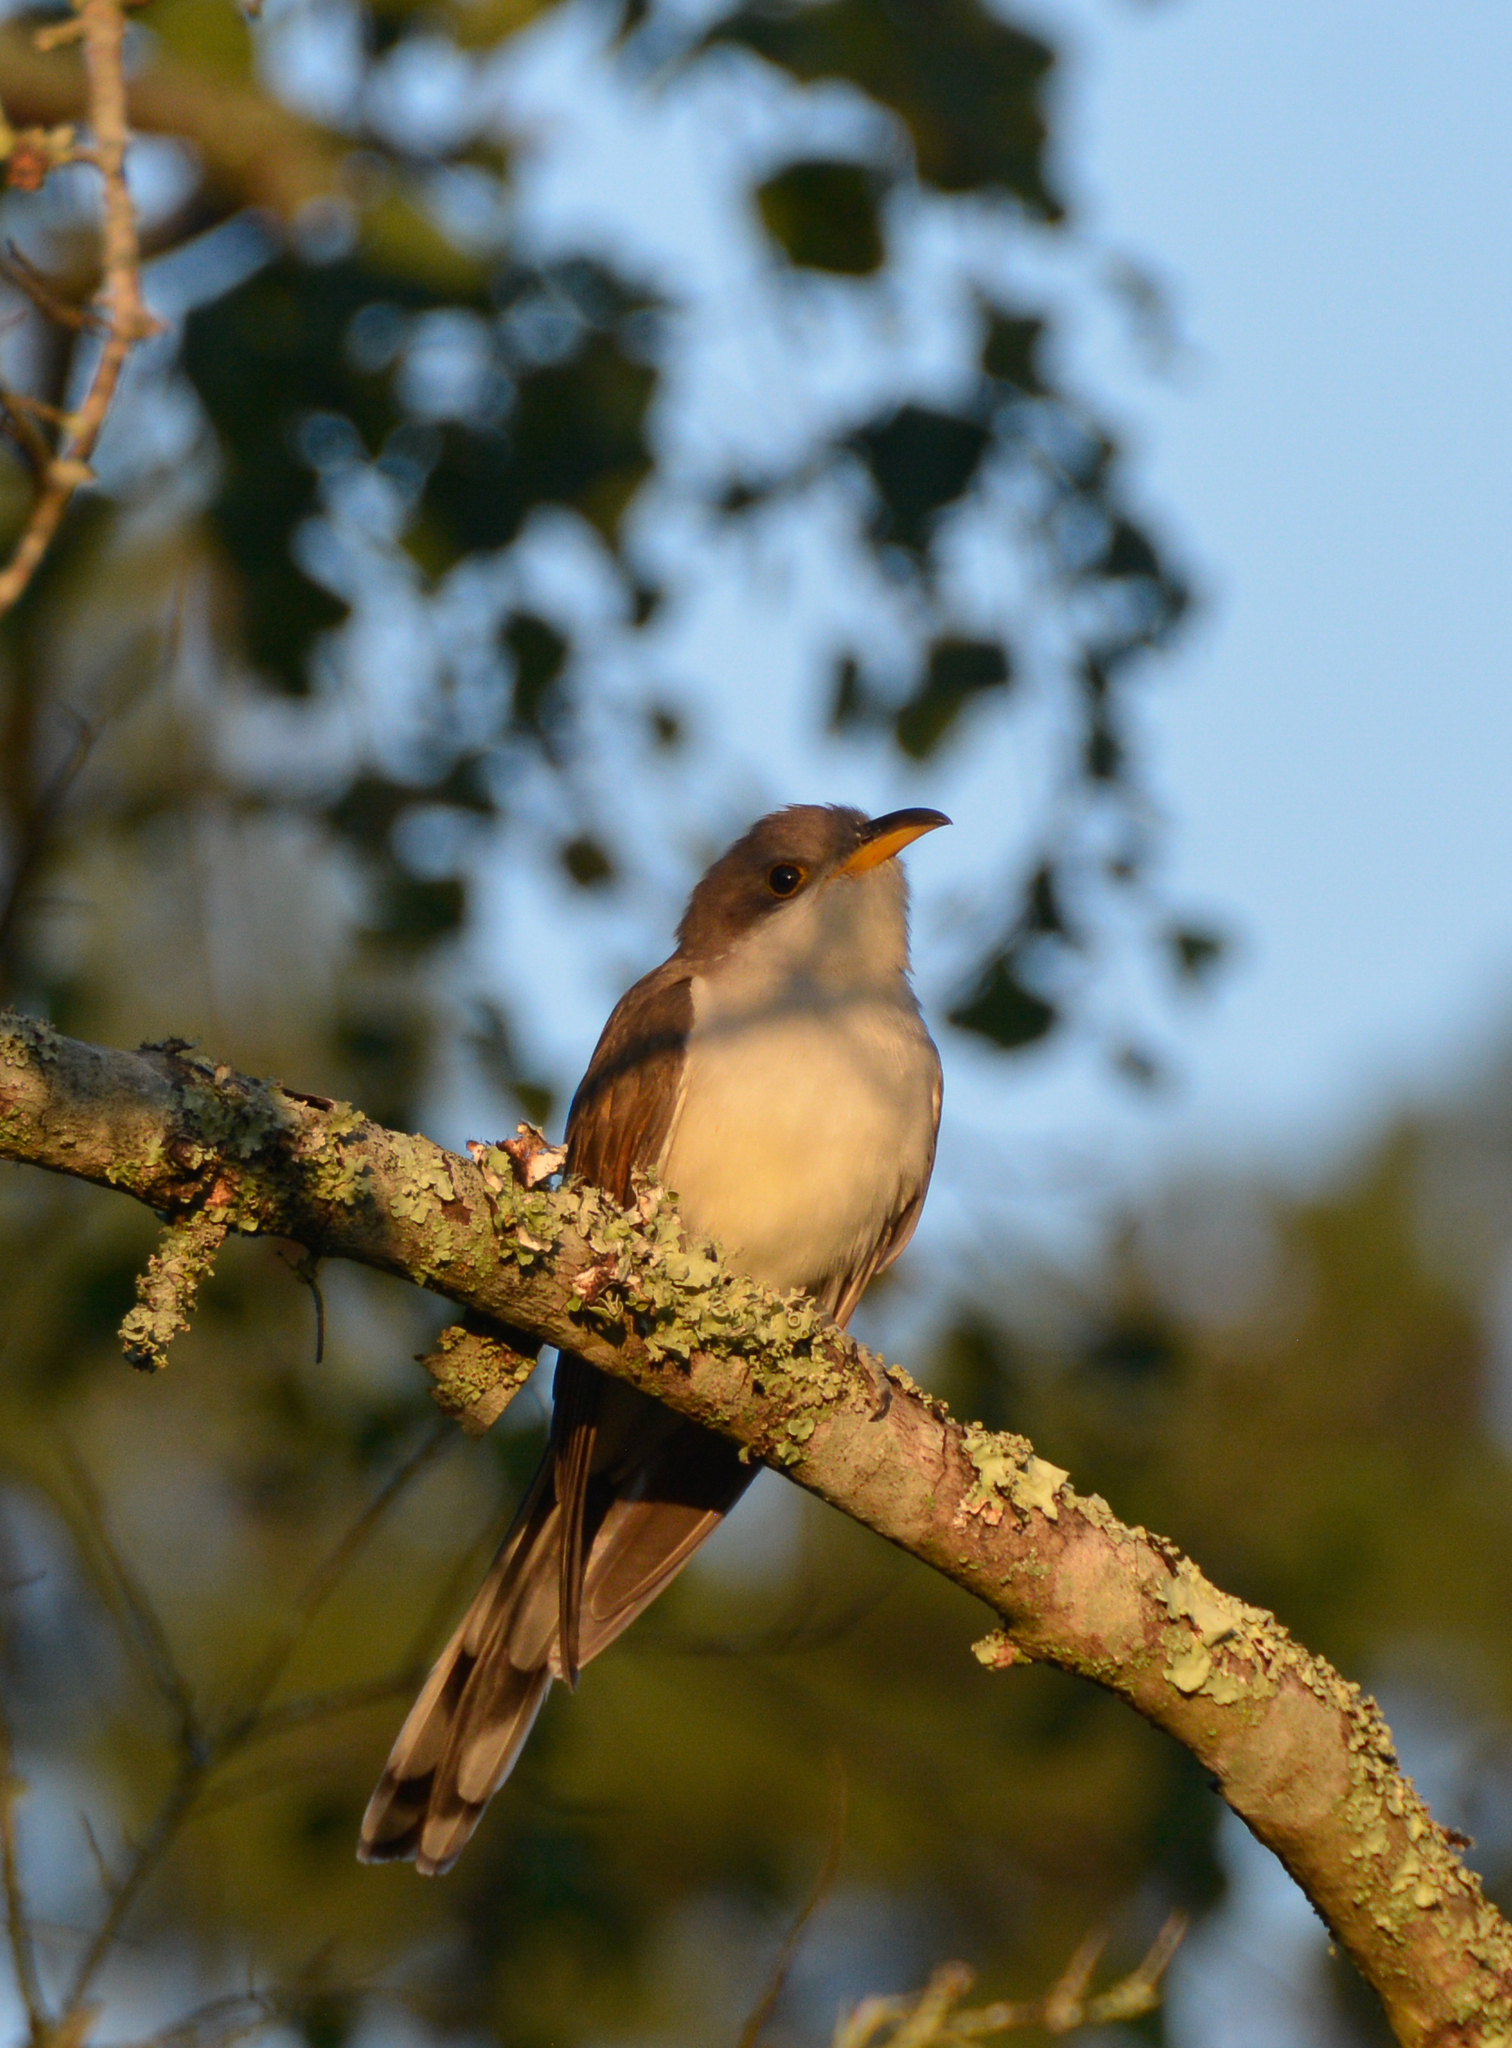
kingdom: Animalia
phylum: Chordata
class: Aves
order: Cuculiformes
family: Cuculidae
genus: Coccyzus
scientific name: Coccyzus americanus
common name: Yellow-billed cuckoo
